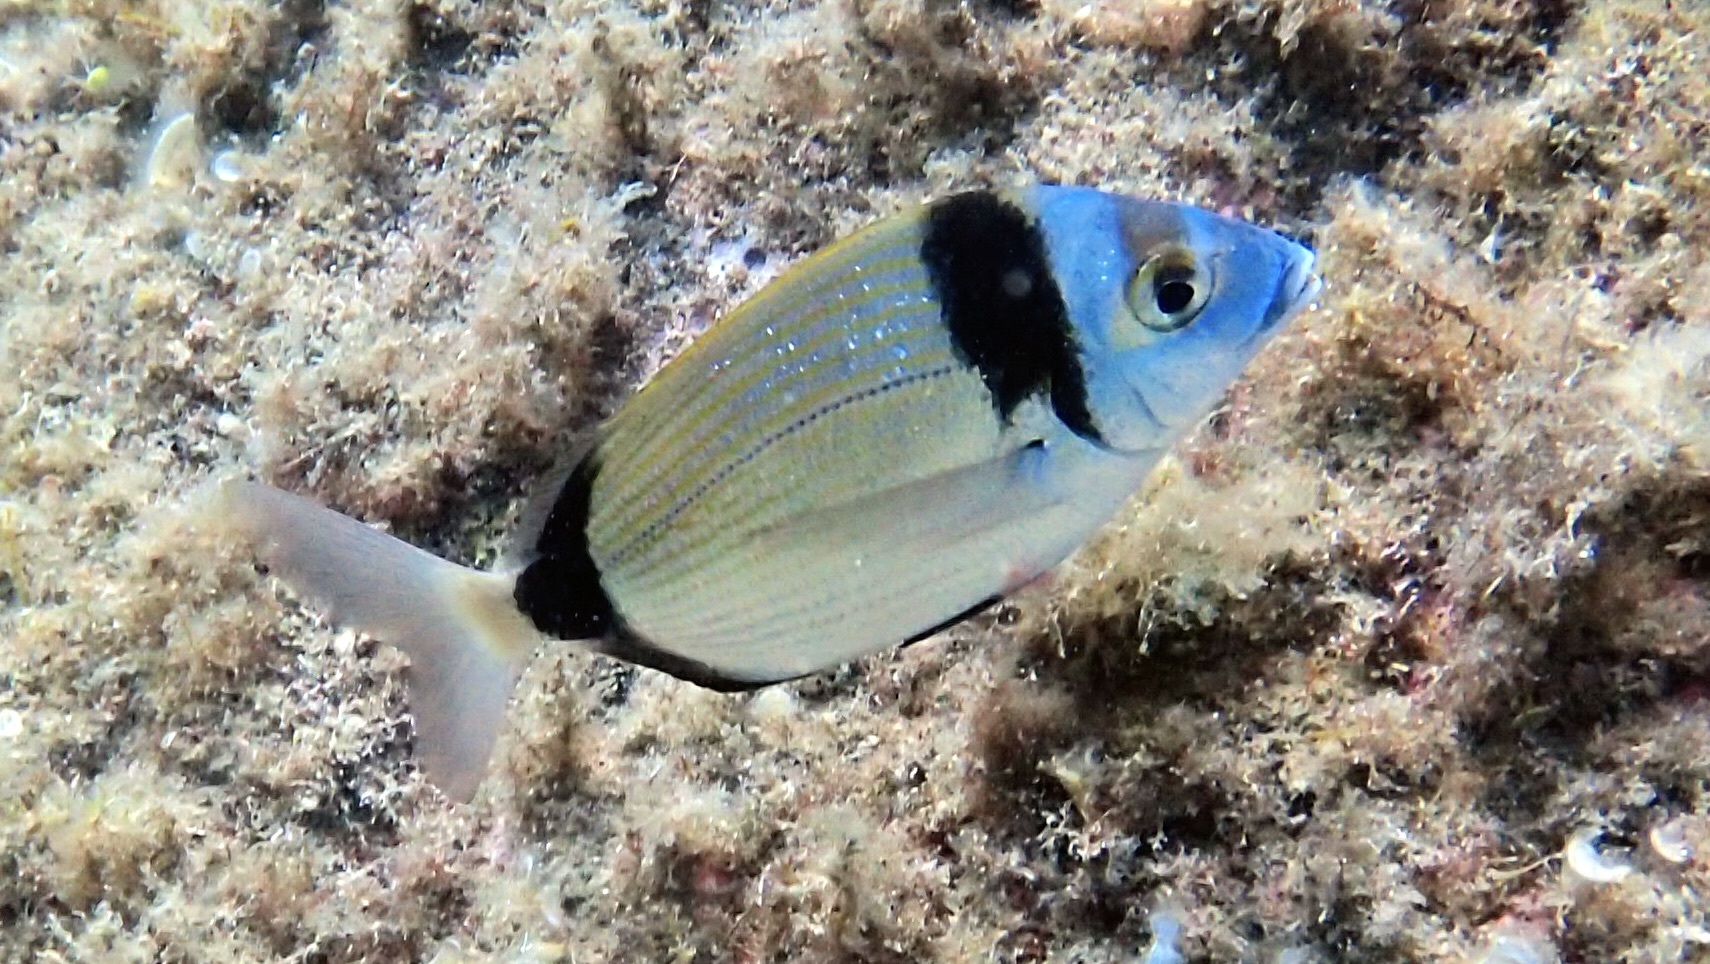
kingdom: Animalia
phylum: Chordata
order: Perciformes
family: Sparidae
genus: Diplodus
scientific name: Diplodus vulgaris
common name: Common two-banded seabream
